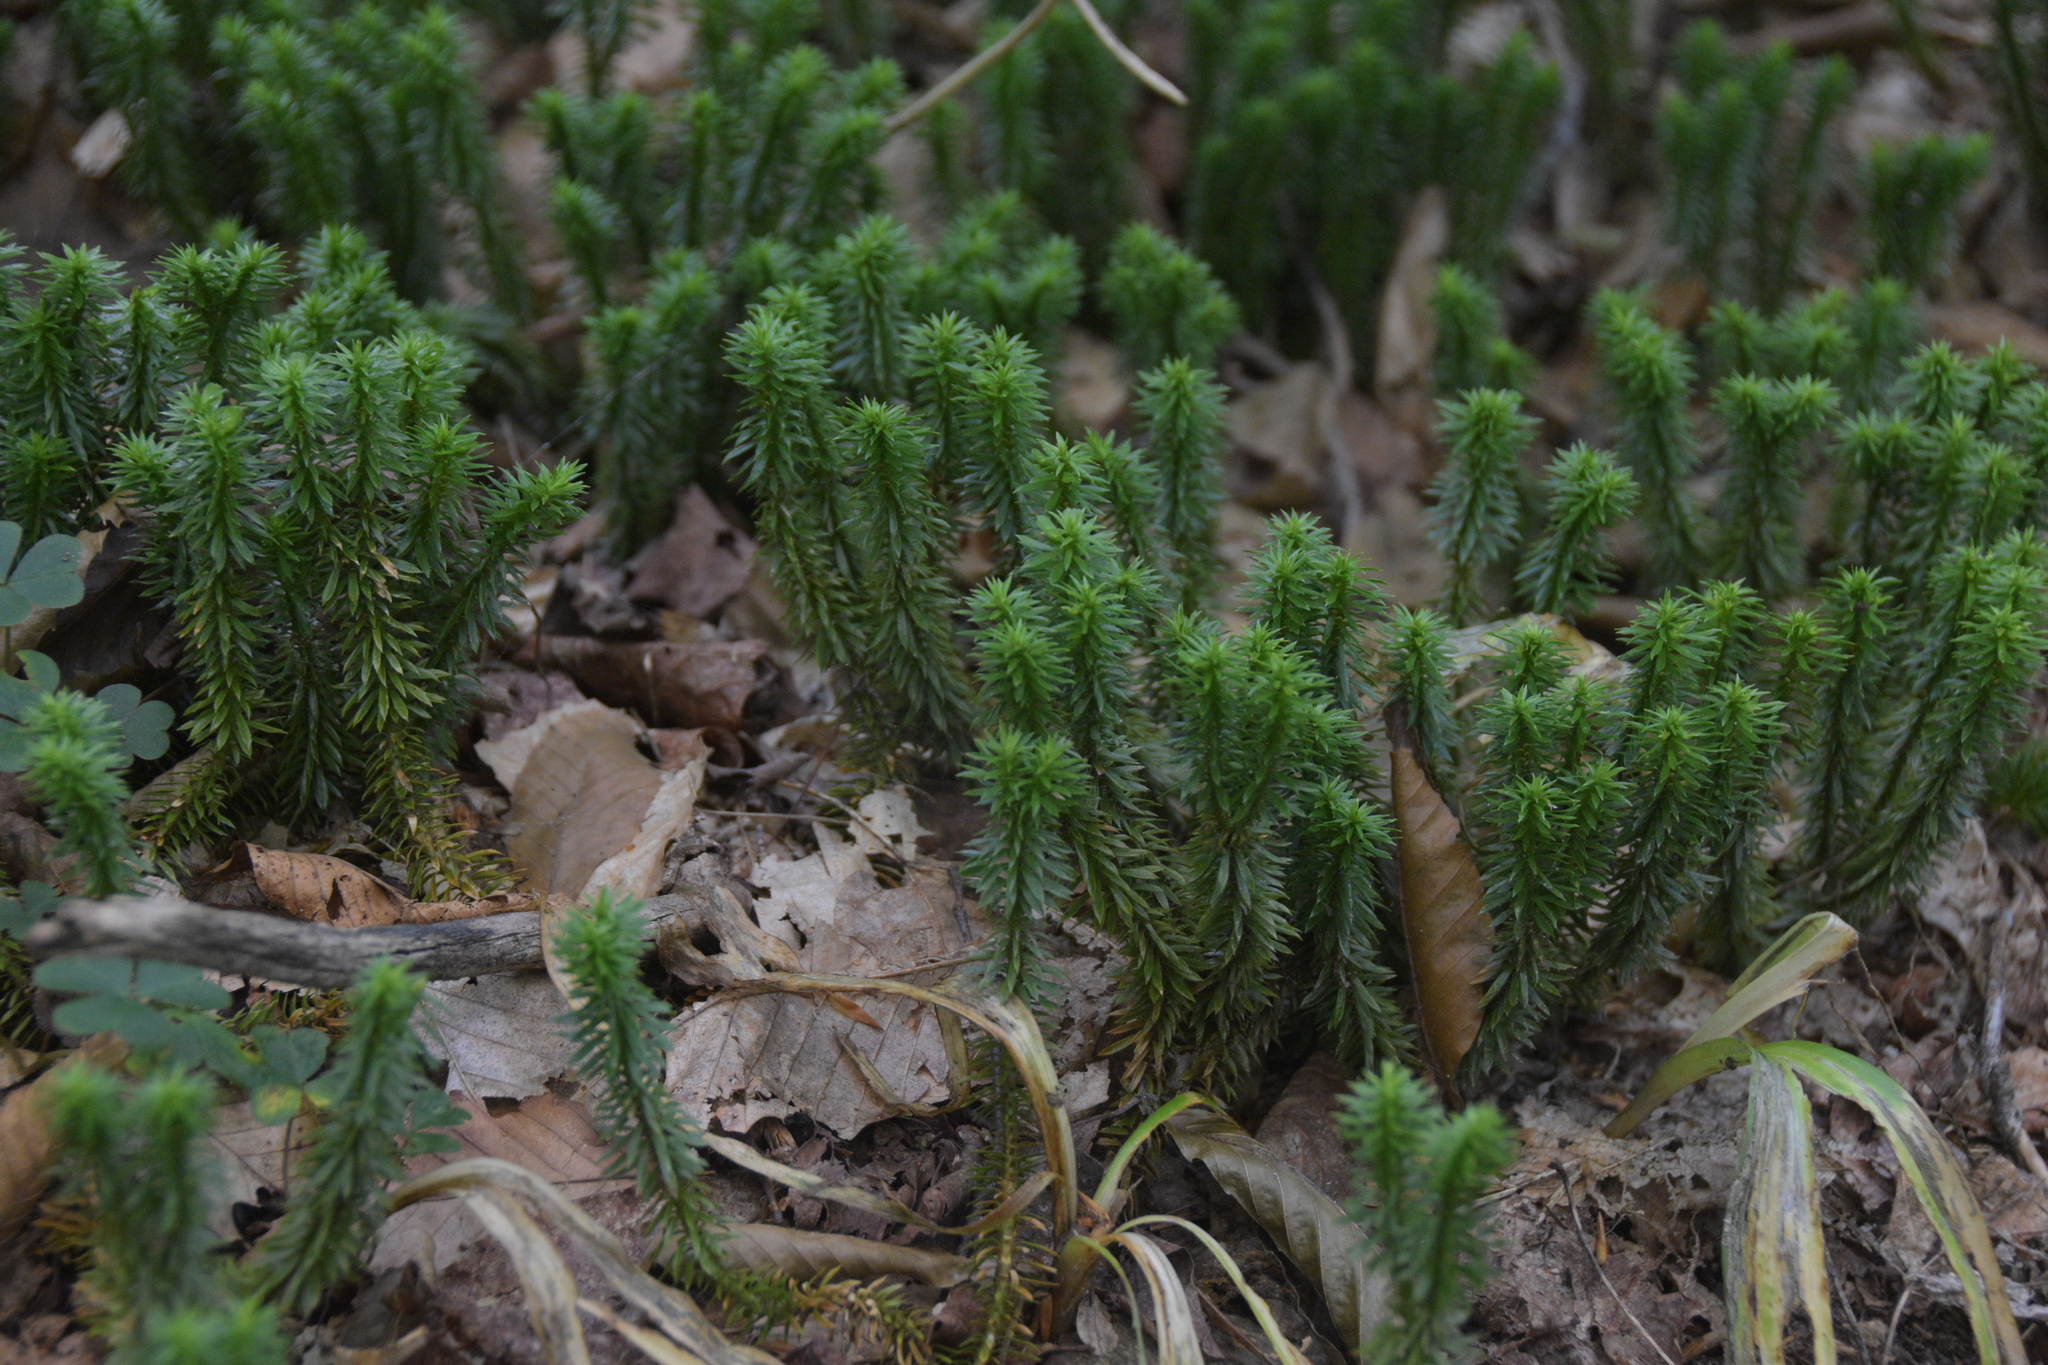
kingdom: Plantae
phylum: Tracheophyta
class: Lycopodiopsida
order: Lycopodiales
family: Lycopodiaceae
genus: Huperzia
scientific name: Huperzia lucidula
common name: Shining clubmoss
